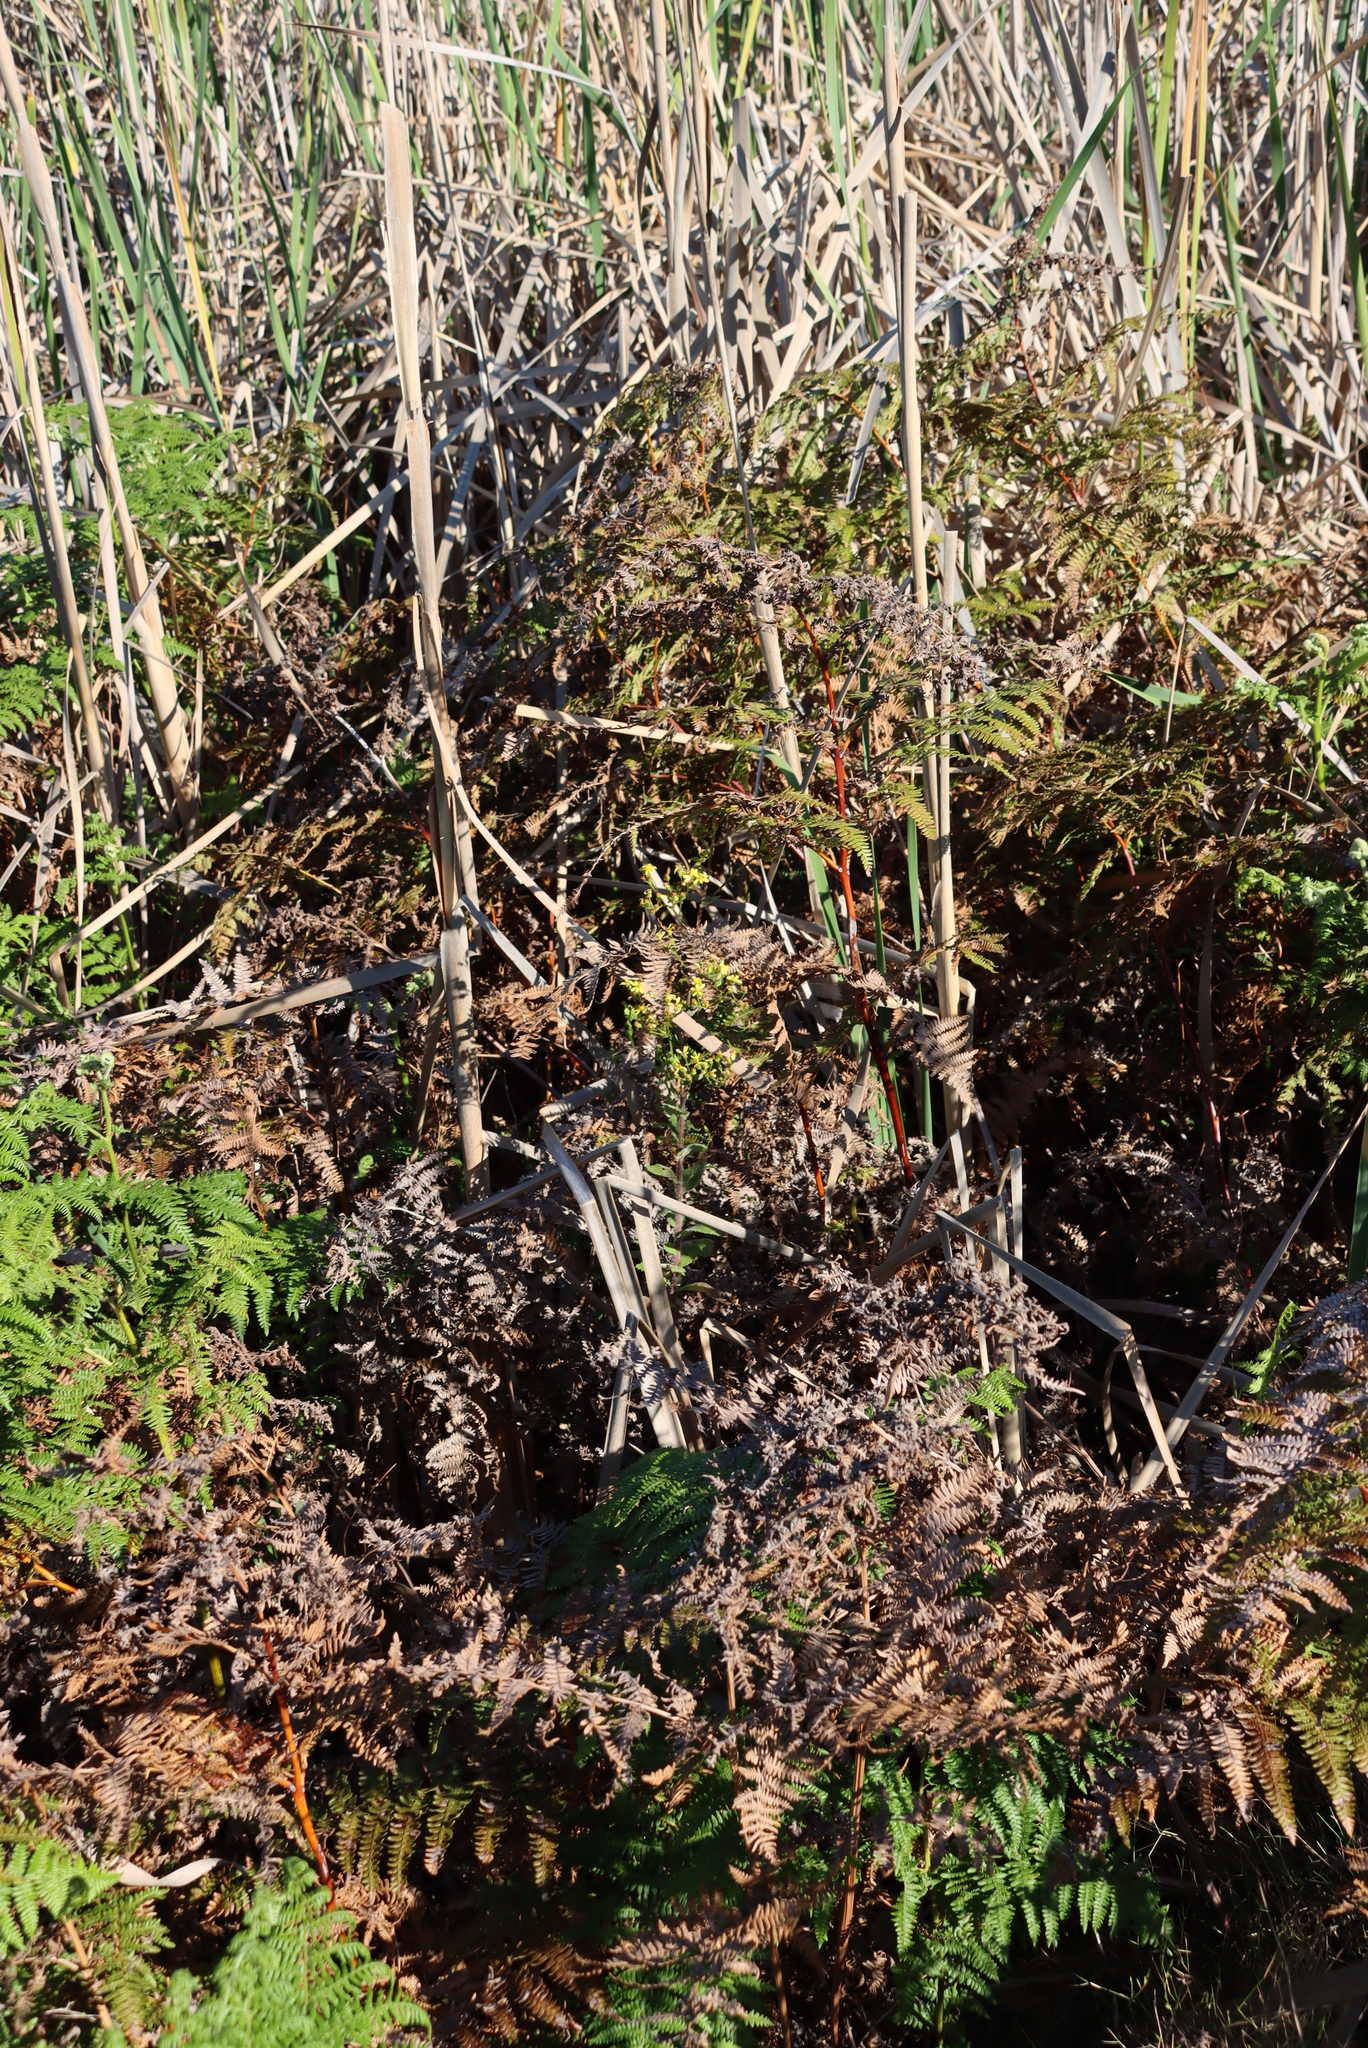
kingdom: Plantae
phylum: Tracheophyta
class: Polypodiopsida
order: Polypodiales
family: Dennstaedtiaceae
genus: Pteridium
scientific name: Pteridium aquilinum
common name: Bracken
